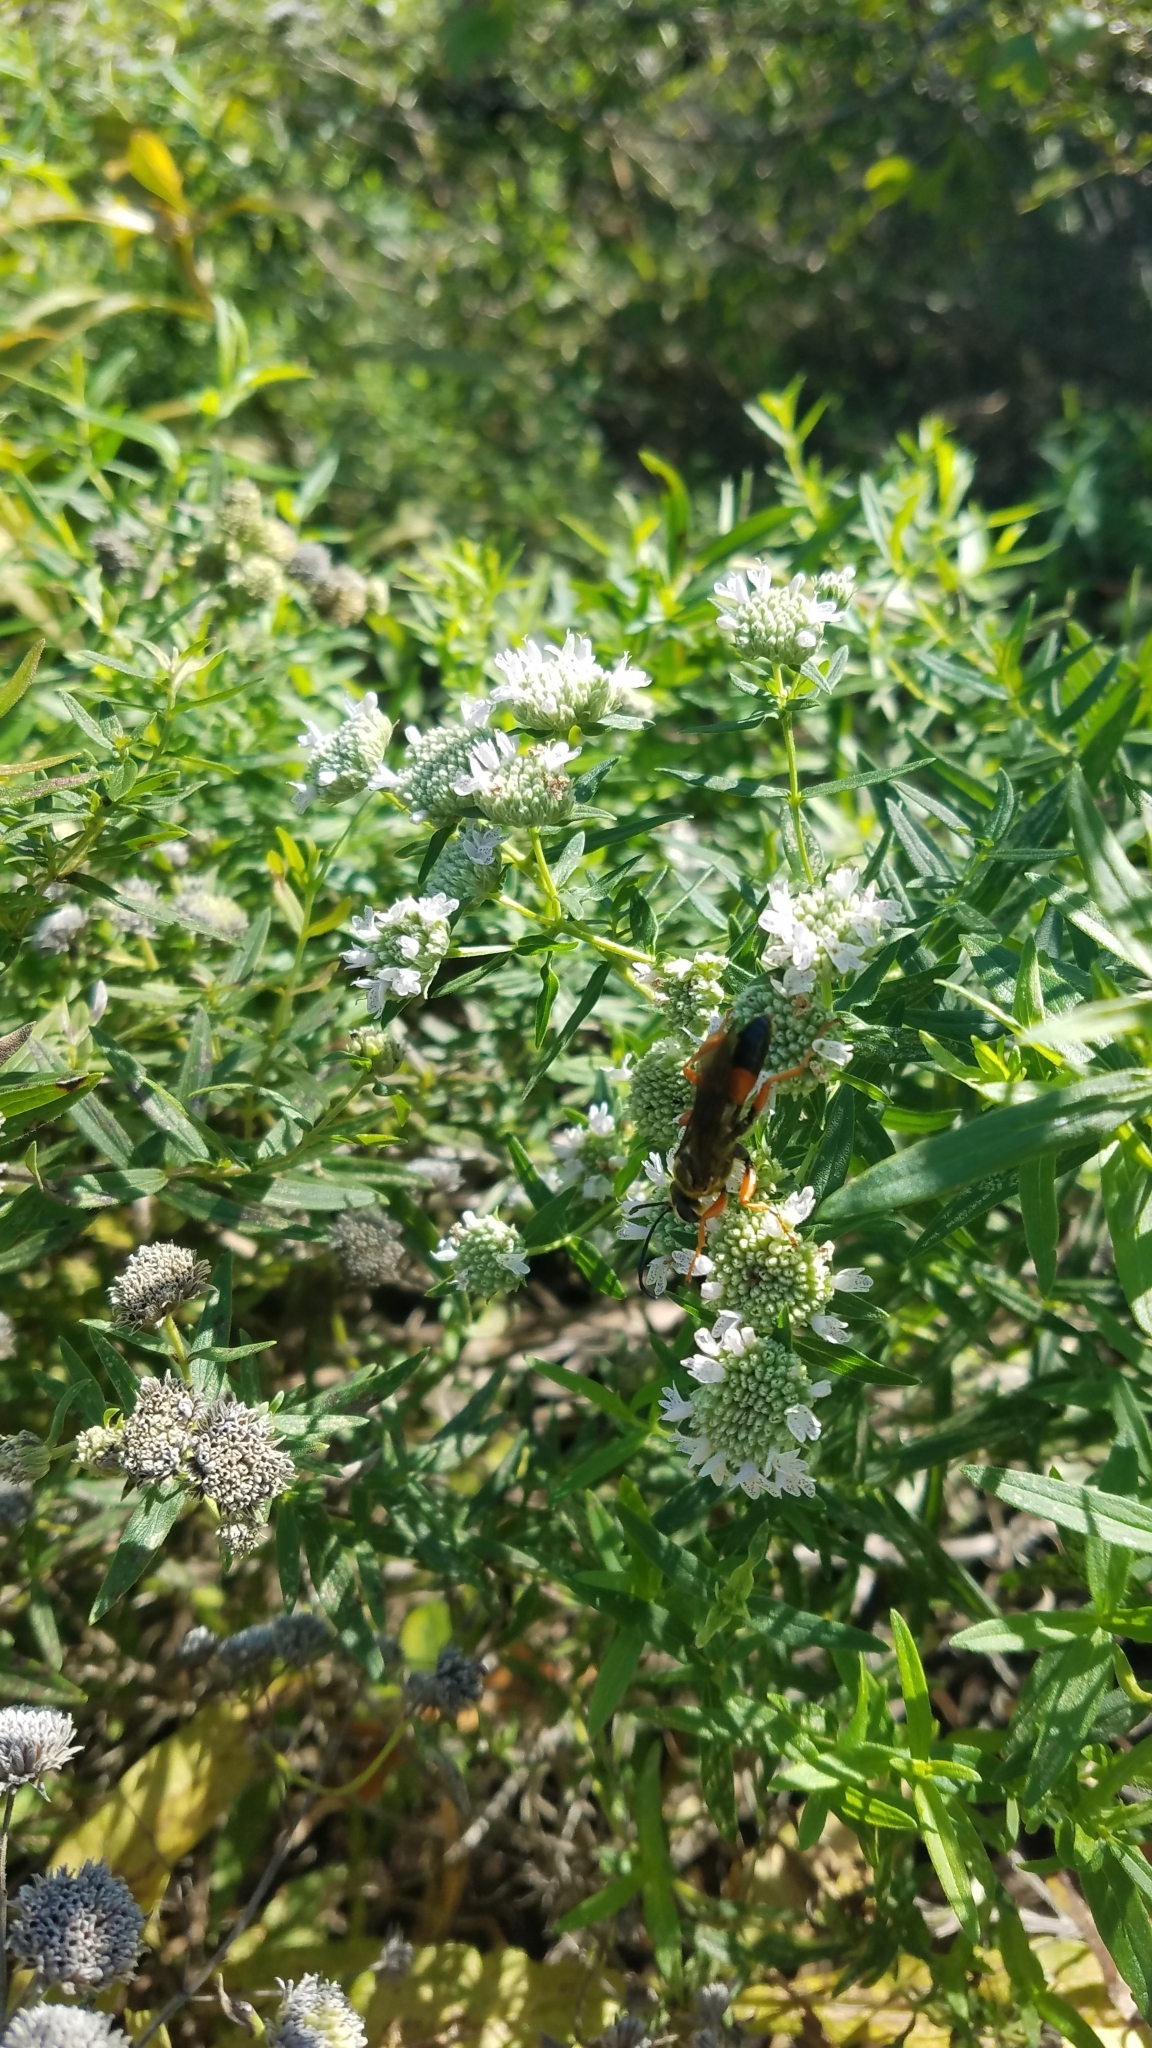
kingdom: Animalia
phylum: Arthropoda
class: Insecta
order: Hymenoptera
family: Sphecidae
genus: Sphex
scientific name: Sphex ichneumoneus
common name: Great golden digger wasp
